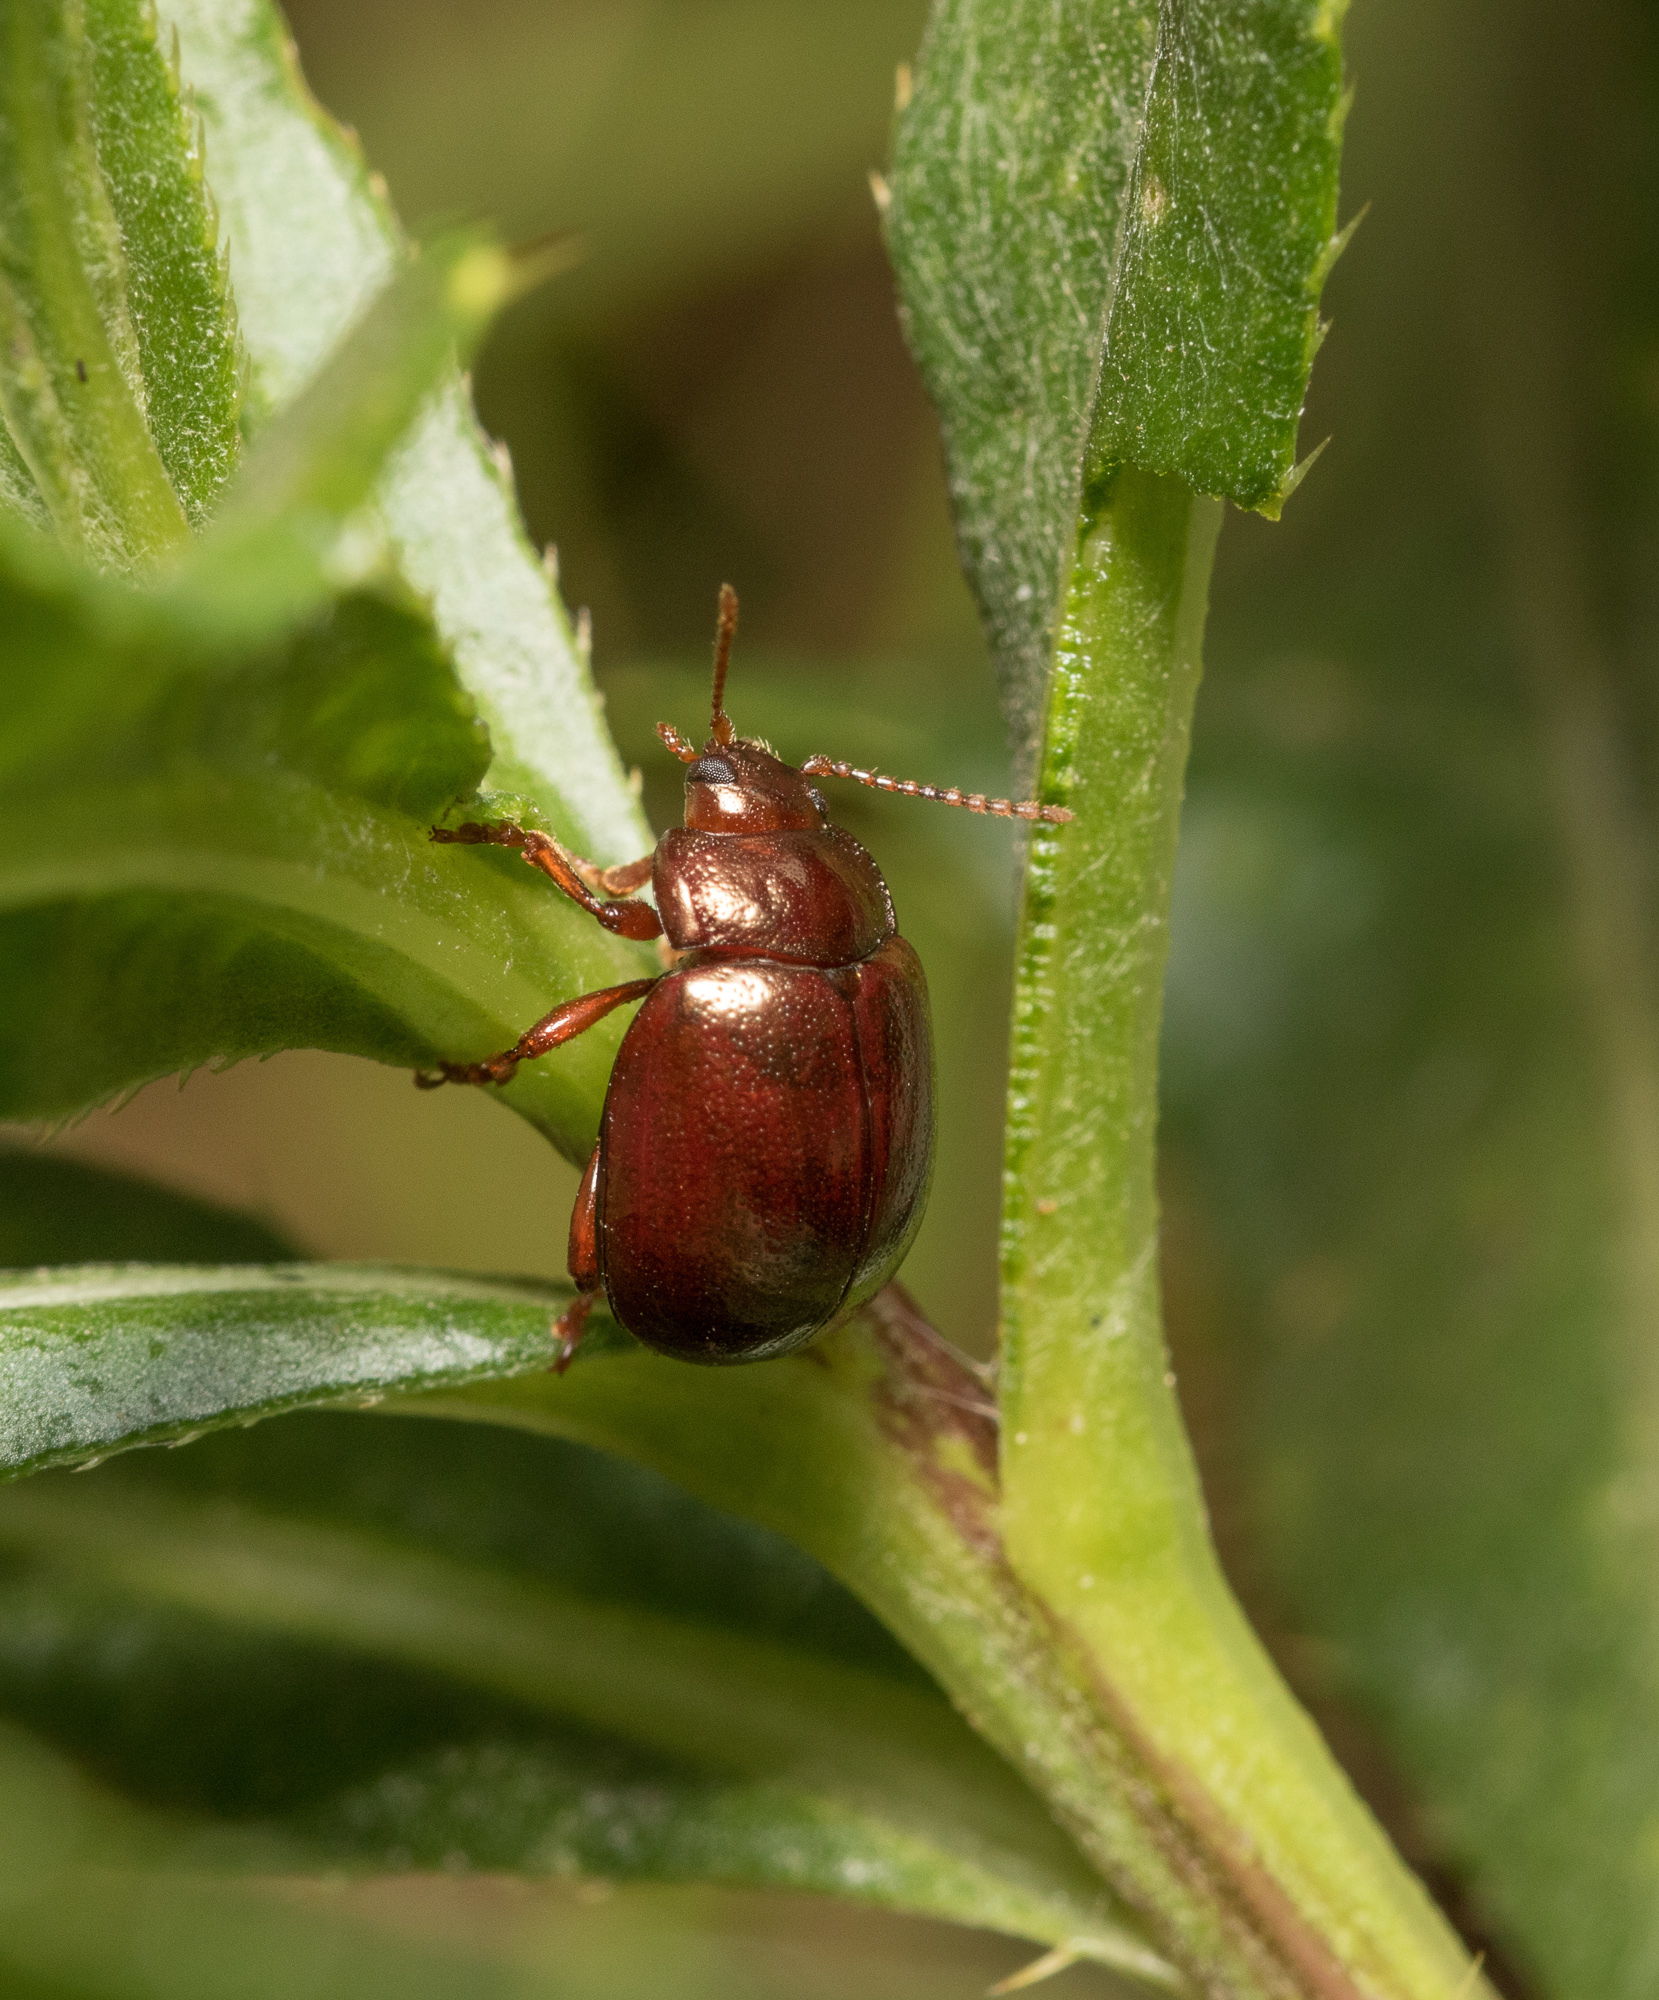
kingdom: Animalia
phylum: Arthropoda
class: Insecta
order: Coleoptera
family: Chrysomelidae
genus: Chrysolina
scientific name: Chrysolina staphylaea
